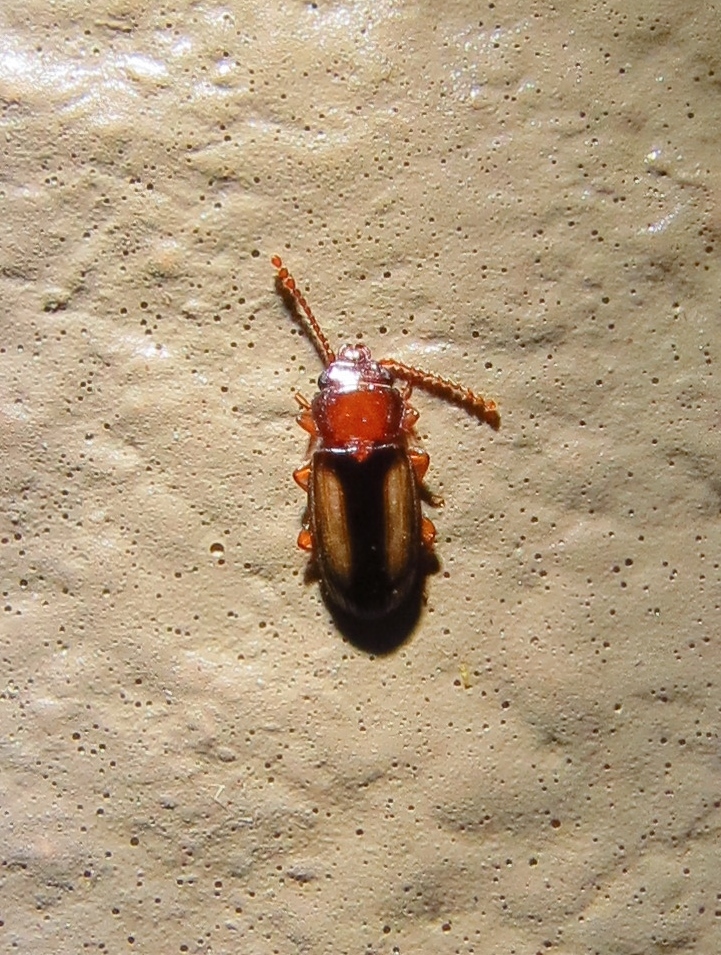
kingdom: Animalia
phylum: Arthropoda
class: Insecta
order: Coleoptera
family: Laemophloeidae
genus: Laemophloeus
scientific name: Laemophloeus terminalis
